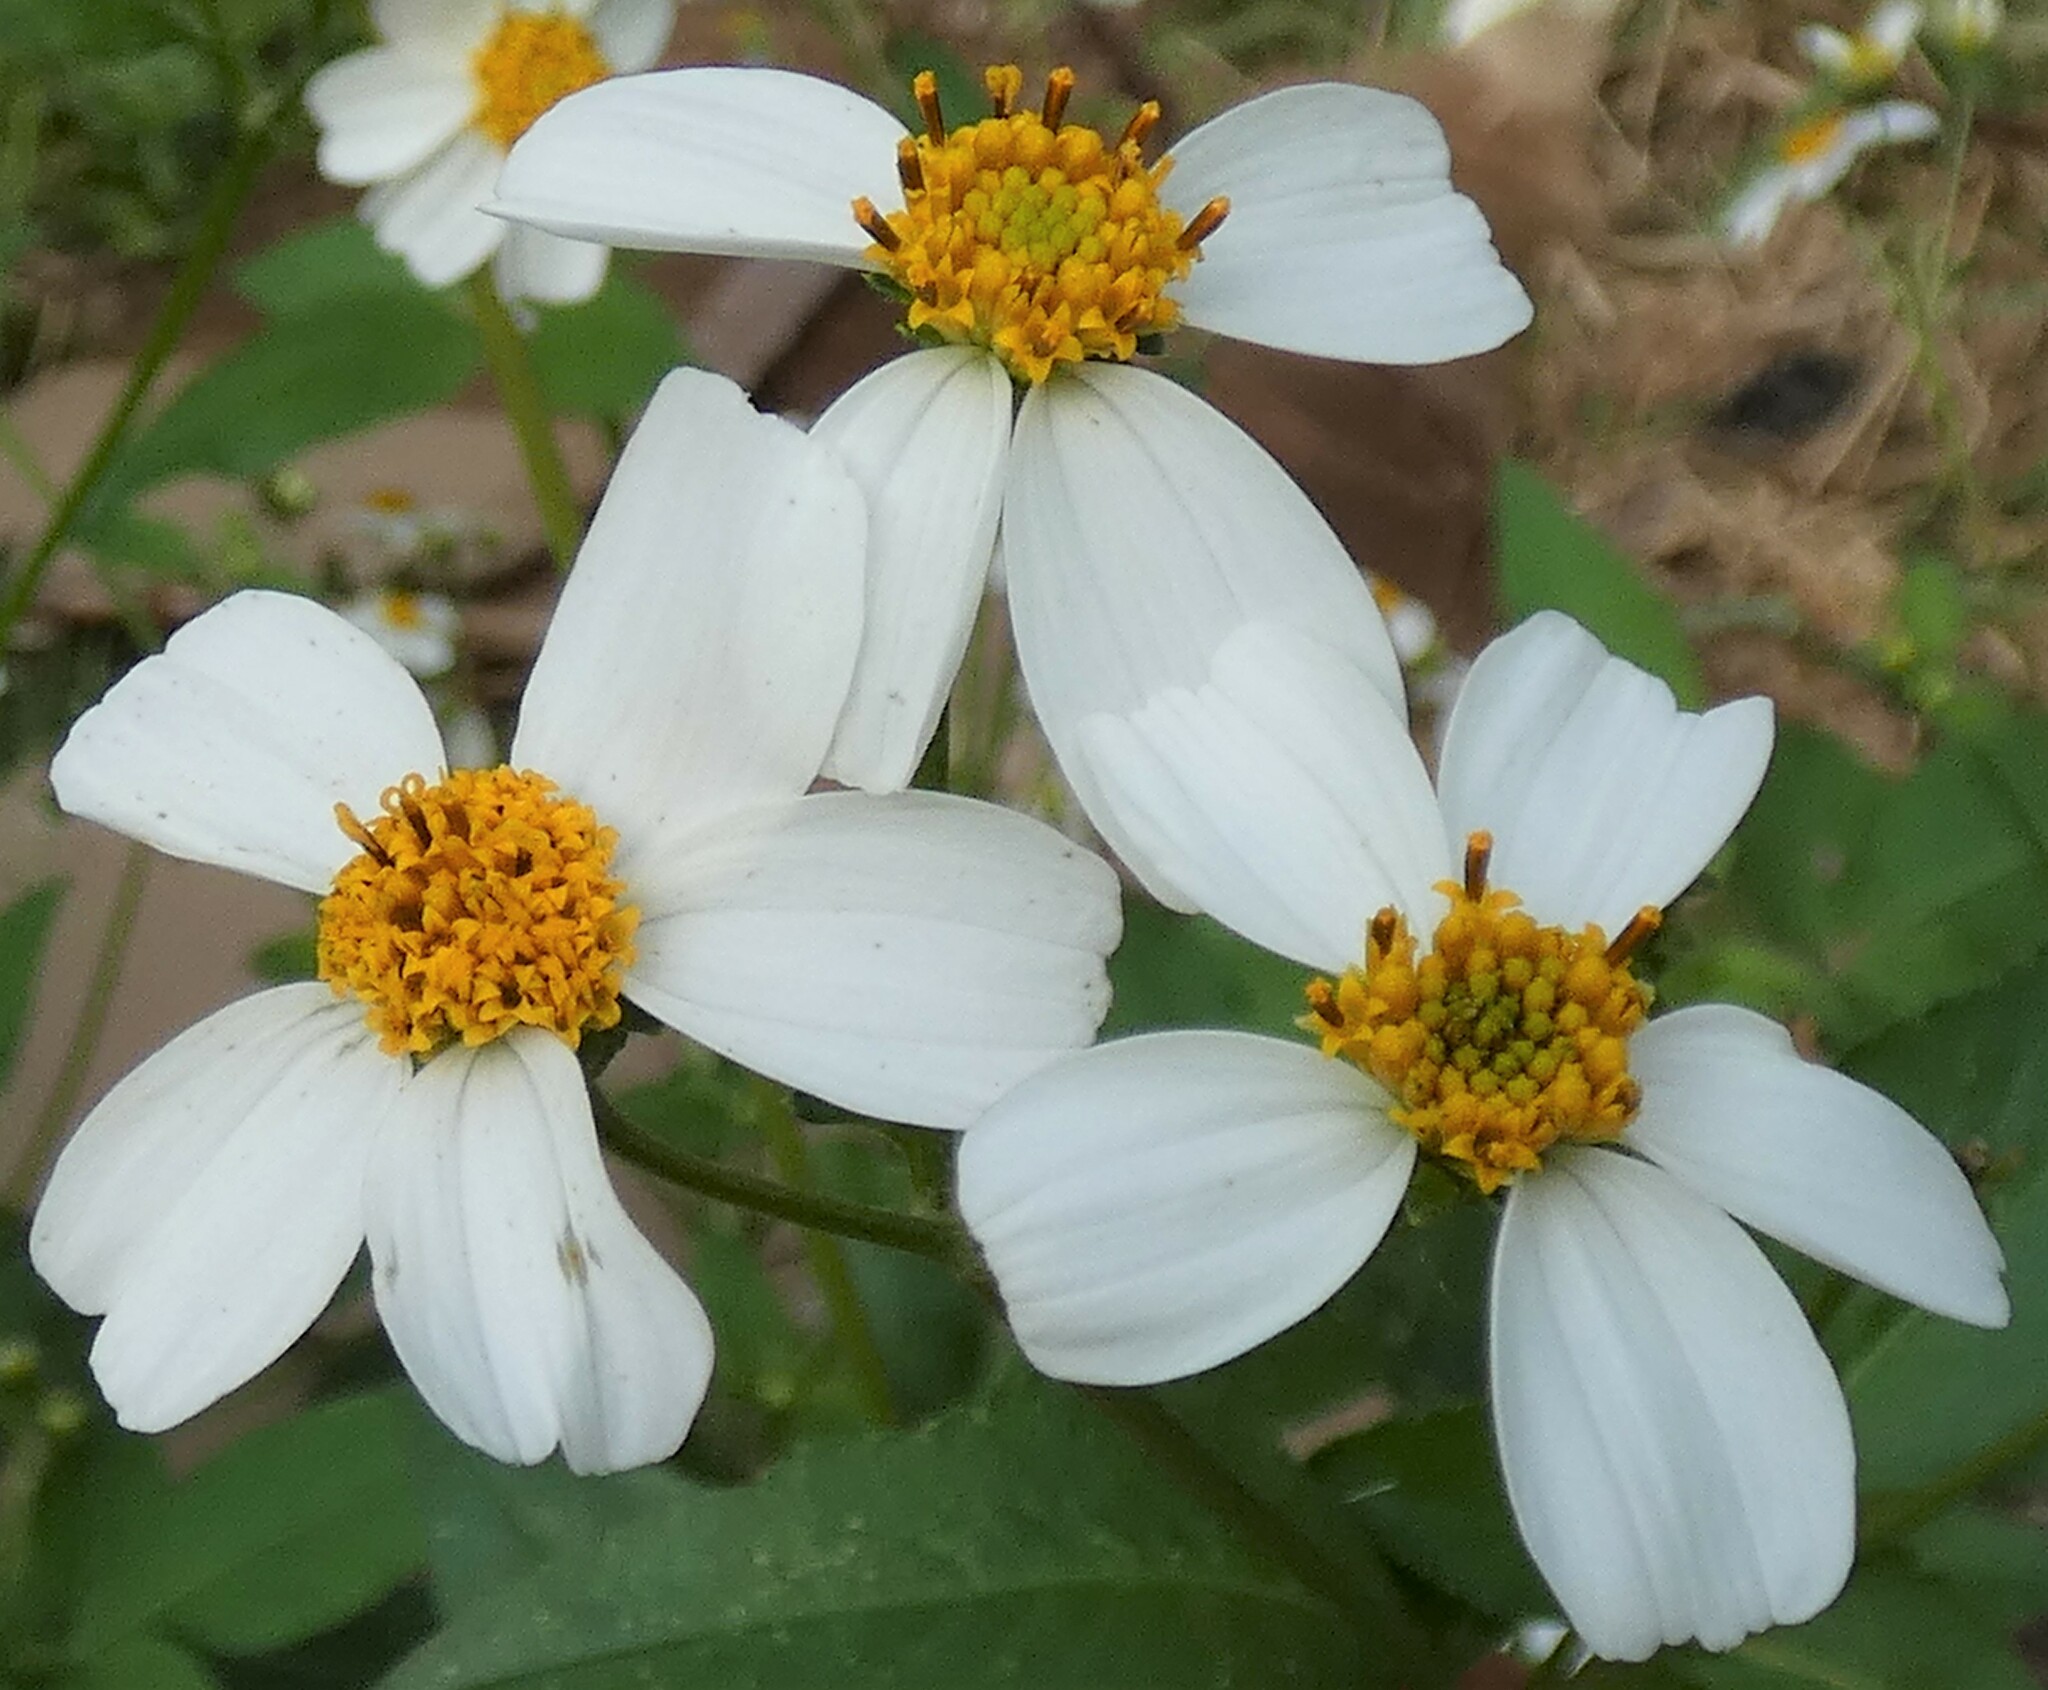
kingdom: Plantae
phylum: Tracheophyta
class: Magnoliopsida
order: Asterales
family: Asteraceae
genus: Bidens
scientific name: Bidens alba
